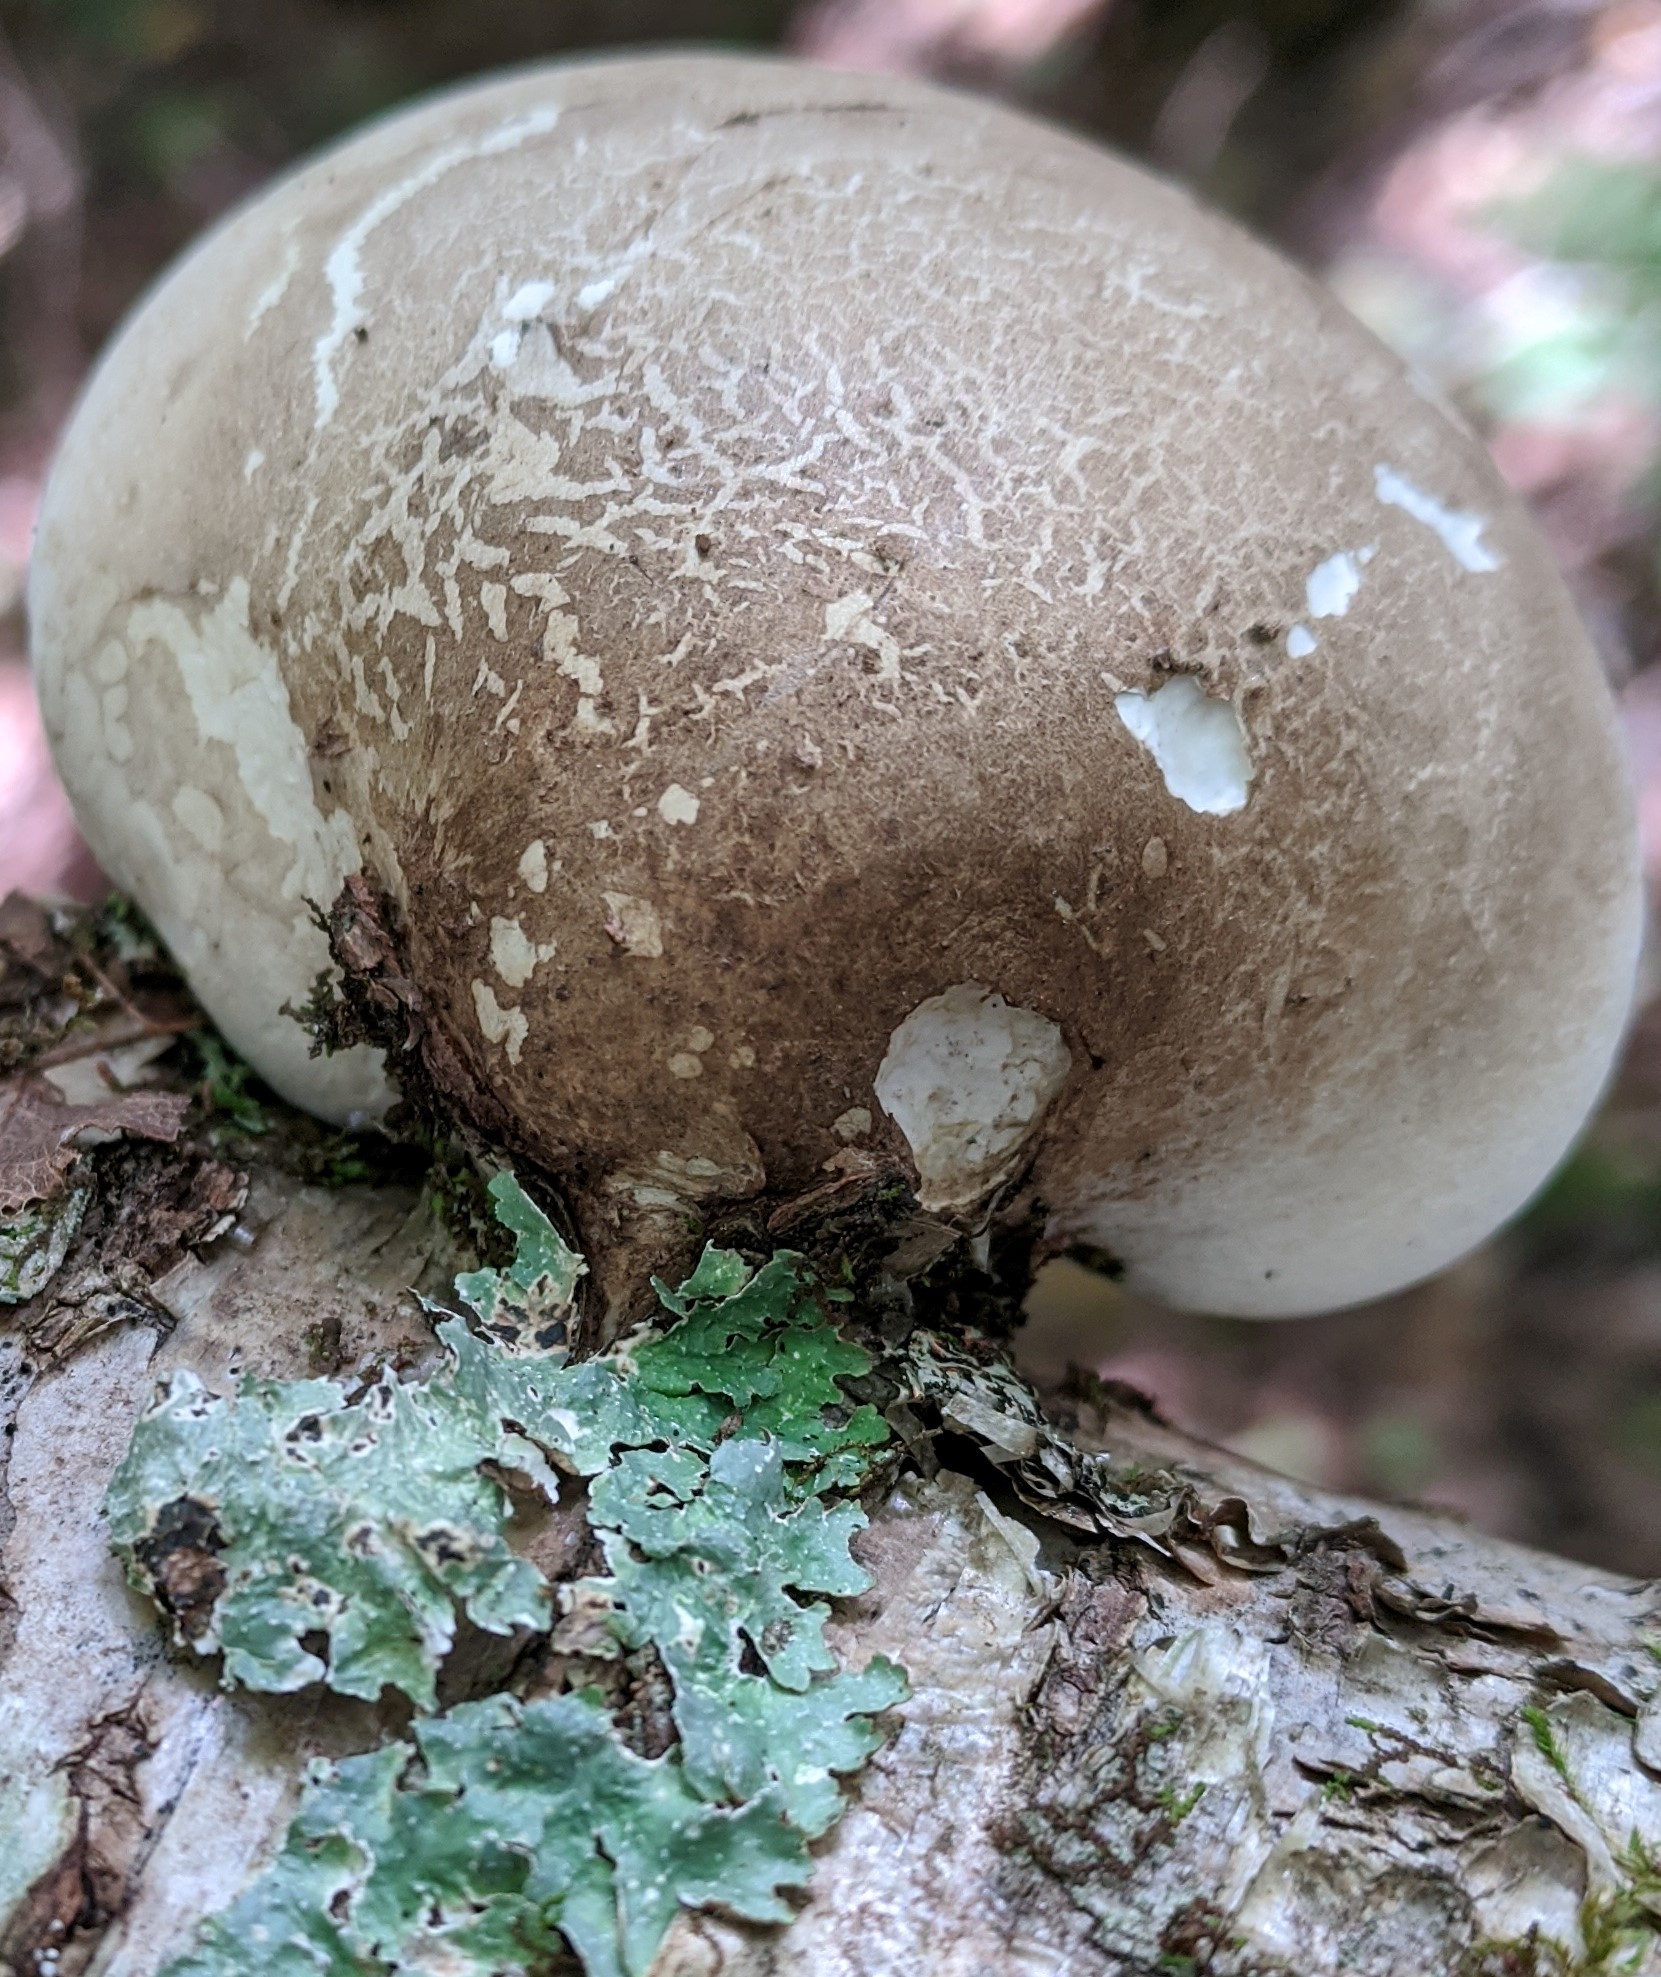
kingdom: Fungi
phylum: Basidiomycota
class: Agaricomycetes
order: Polyporales
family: Fomitopsidaceae
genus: Fomitopsis
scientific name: Fomitopsis betulina
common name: Birch polypore
